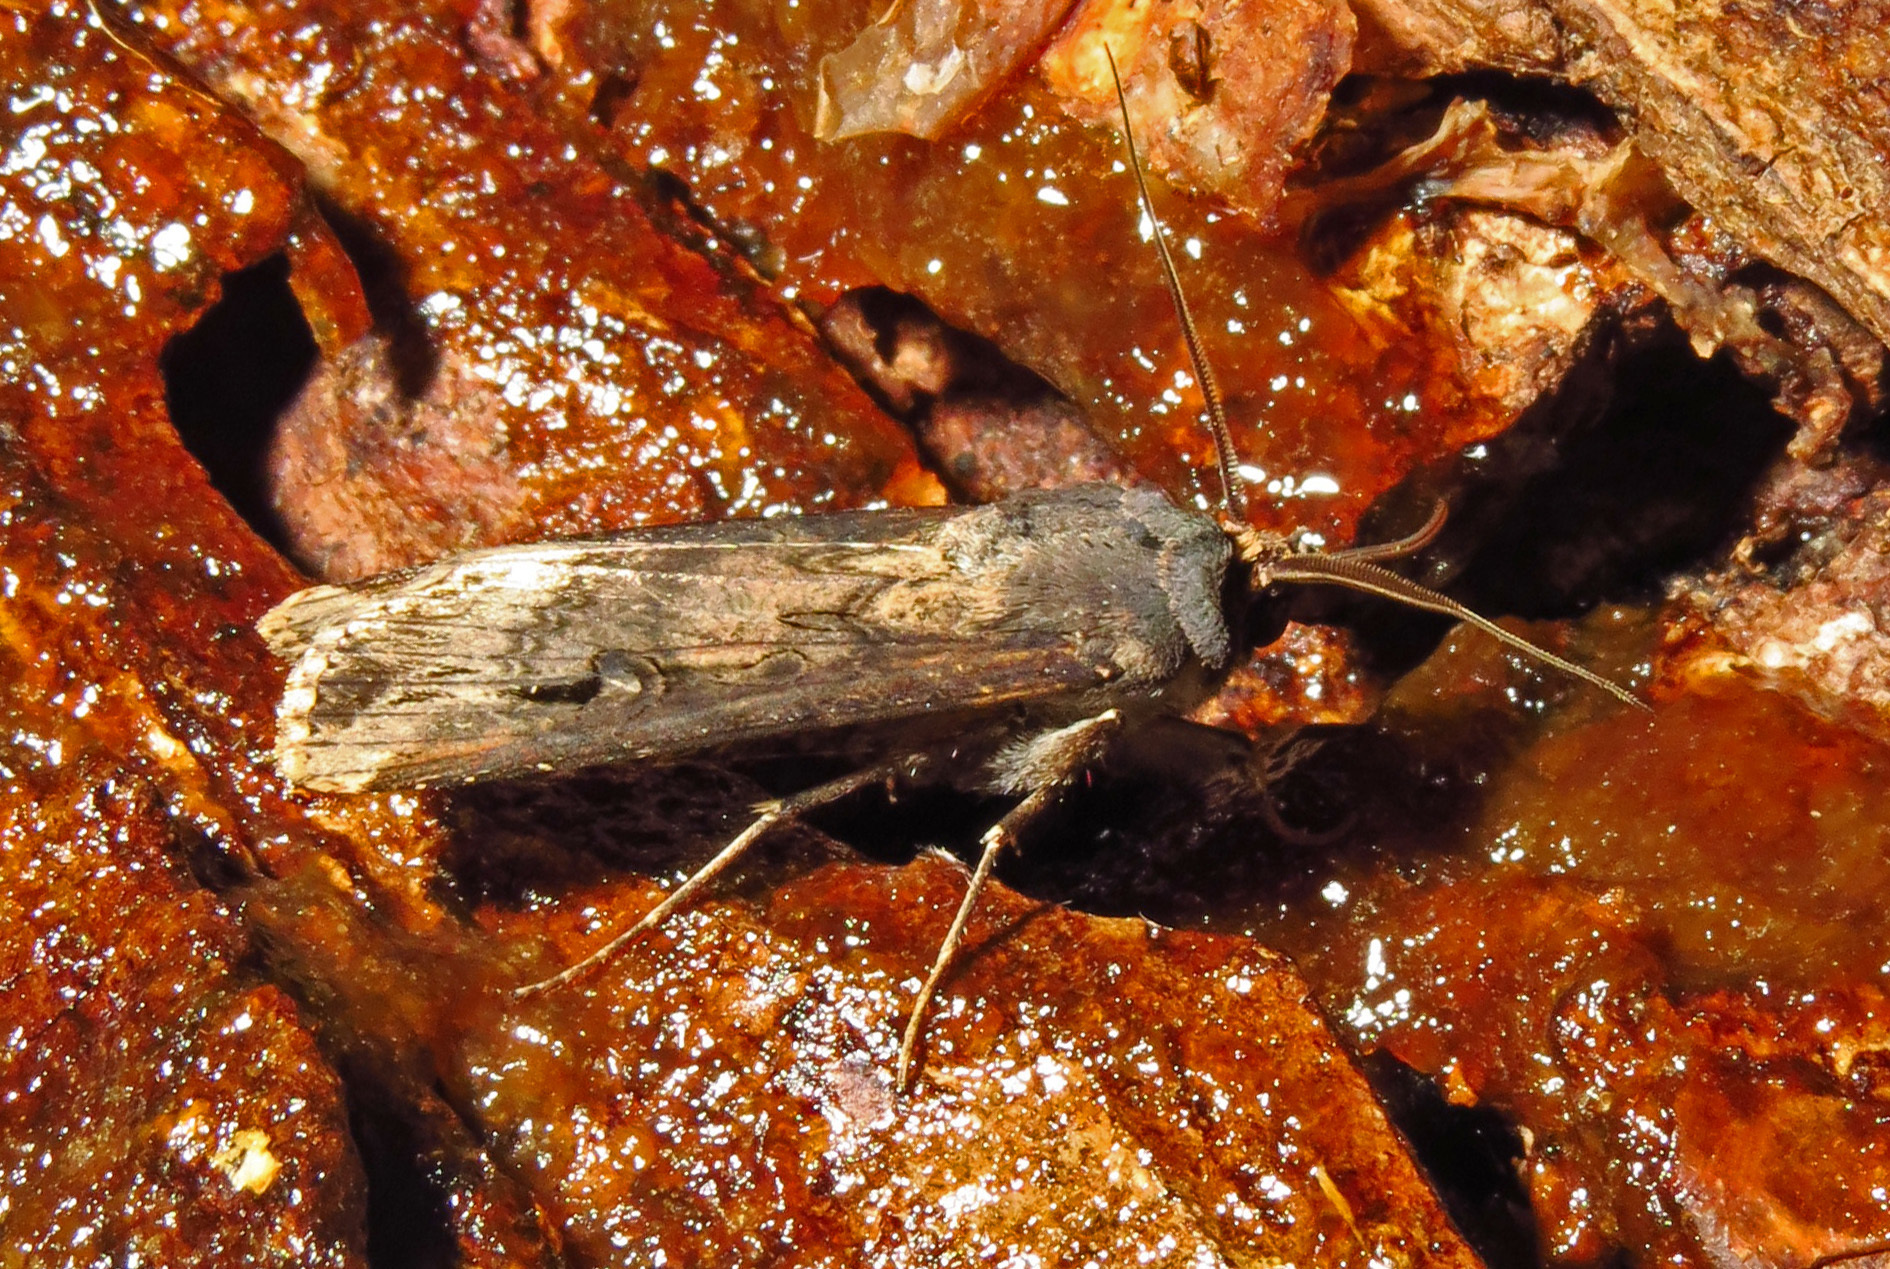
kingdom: Animalia
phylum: Arthropoda
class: Insecta
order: Lepidoptera
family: Noctuidae
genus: Agrotis
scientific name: Agrotis ipsilon
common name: Dark sword-grass
